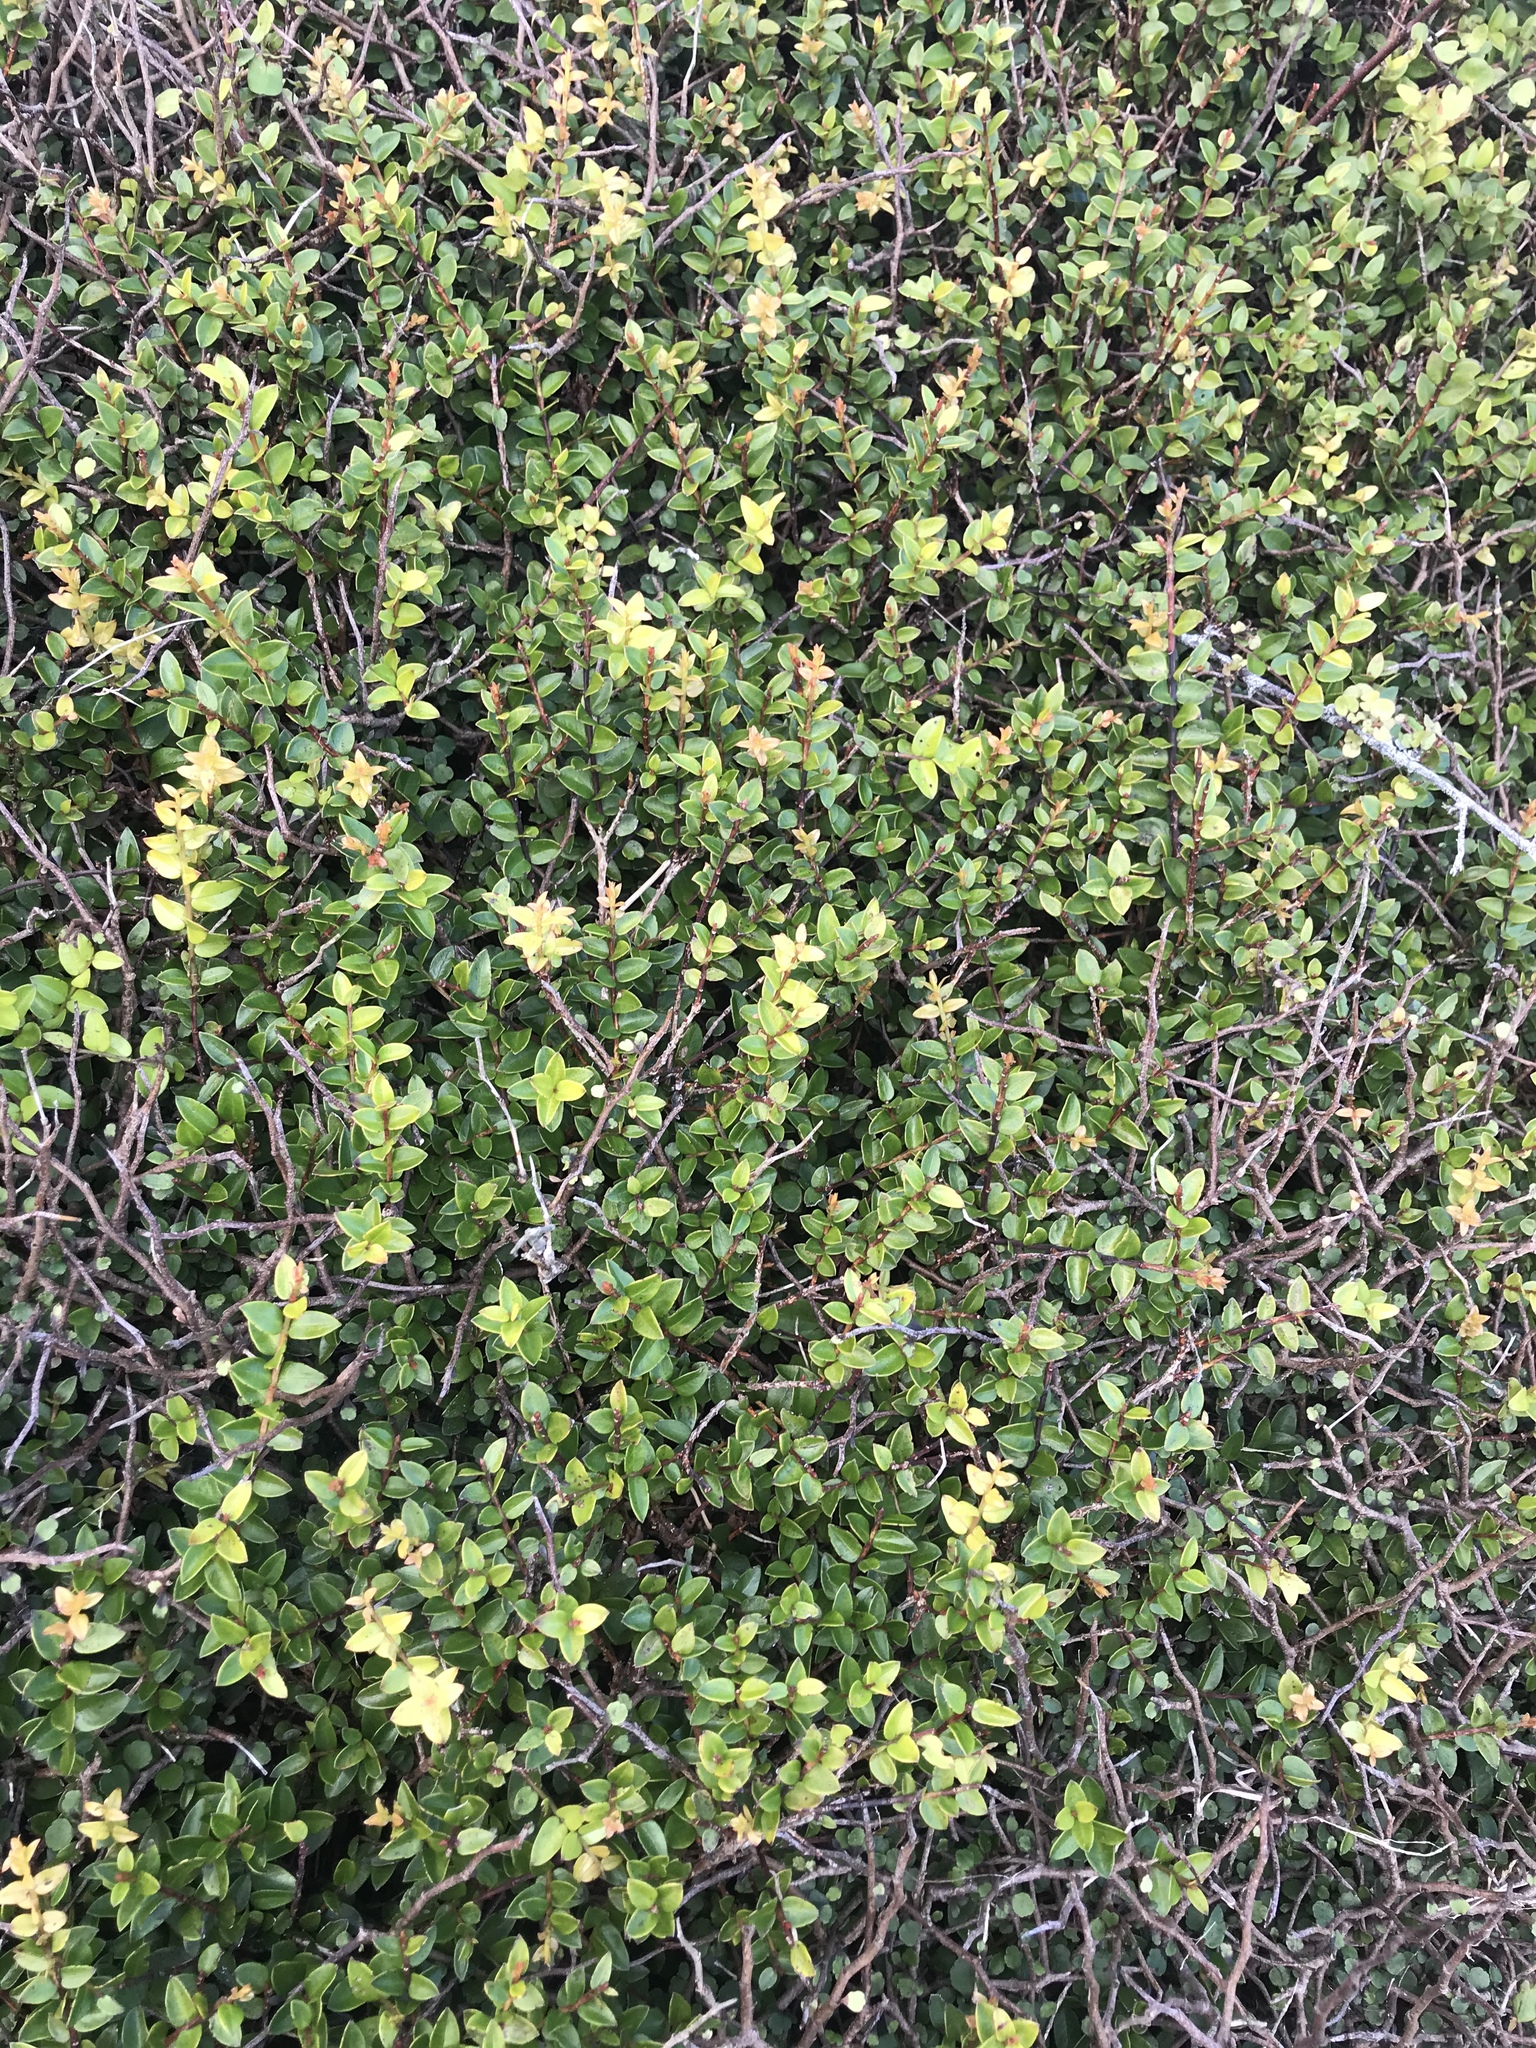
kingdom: Plantae
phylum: Tracheophyta
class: Magnoliopsida
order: Myrtales
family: Myrtaceae
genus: Metrosideros
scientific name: Metrosideros diffusa
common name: Small ratavine
